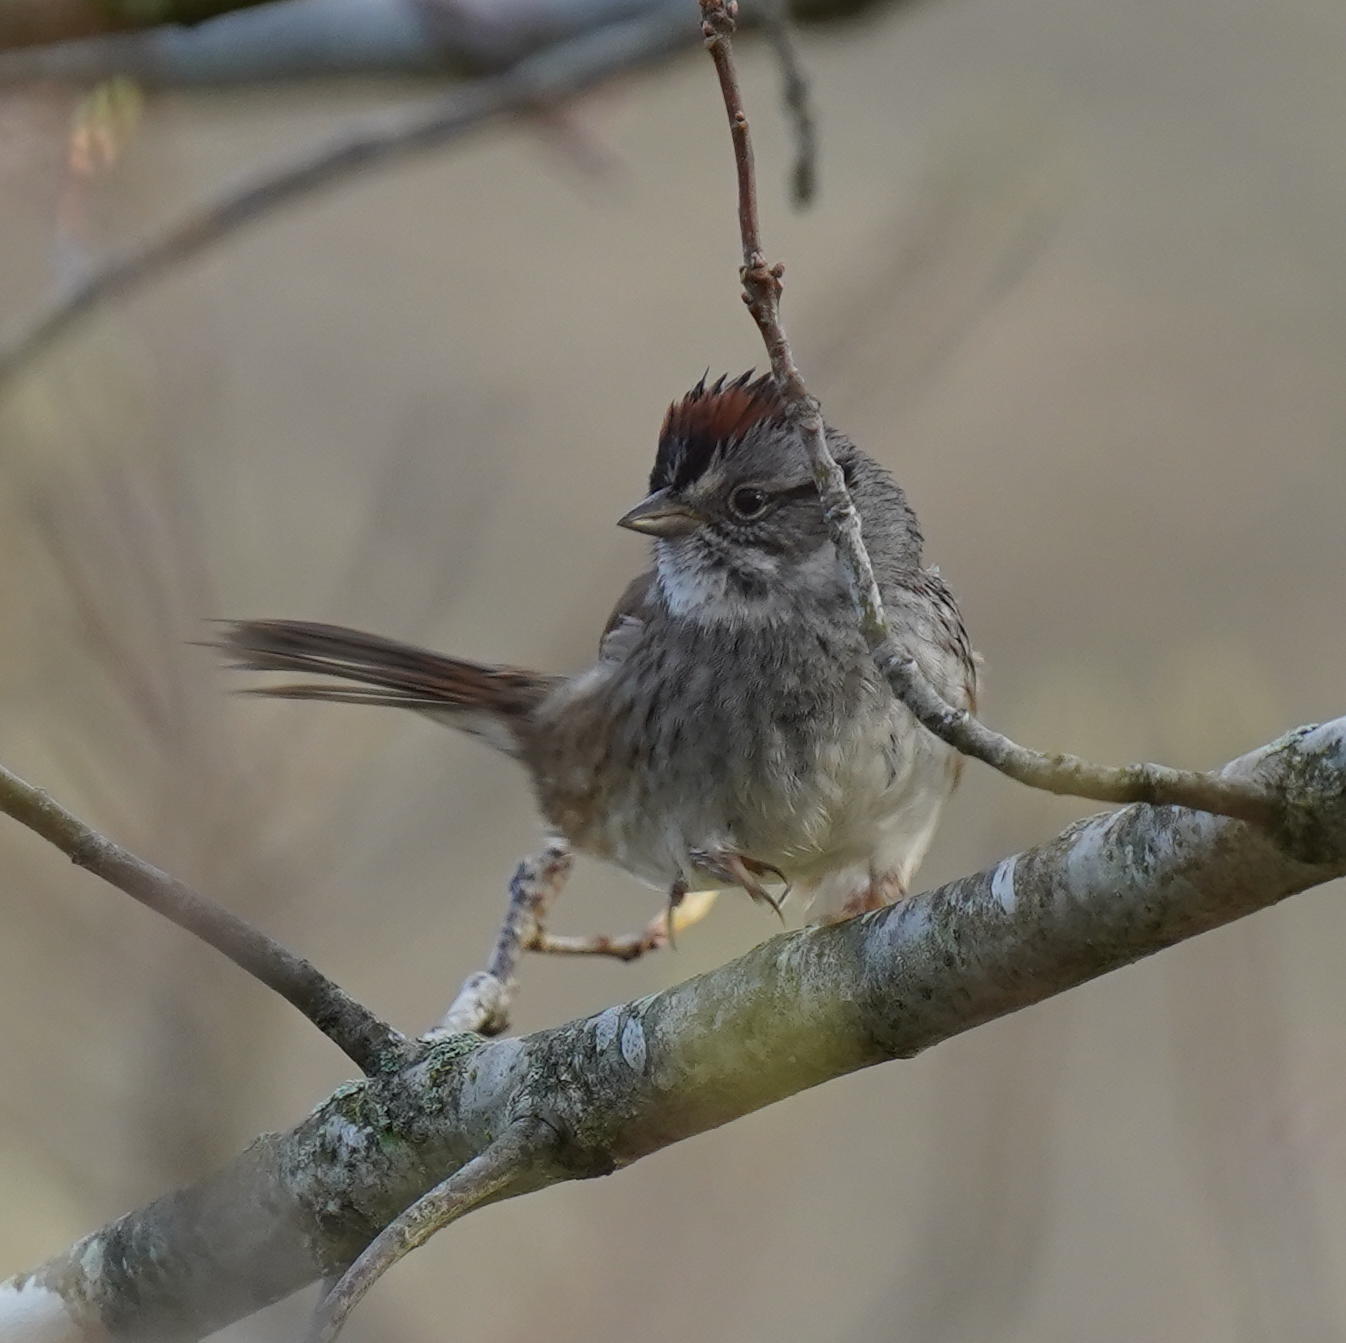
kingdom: Animalia
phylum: Chordata
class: Aves
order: Passeriformes
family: Passerellidae
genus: Melospiza
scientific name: Melospiza georgiana
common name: Swamp sparrow
